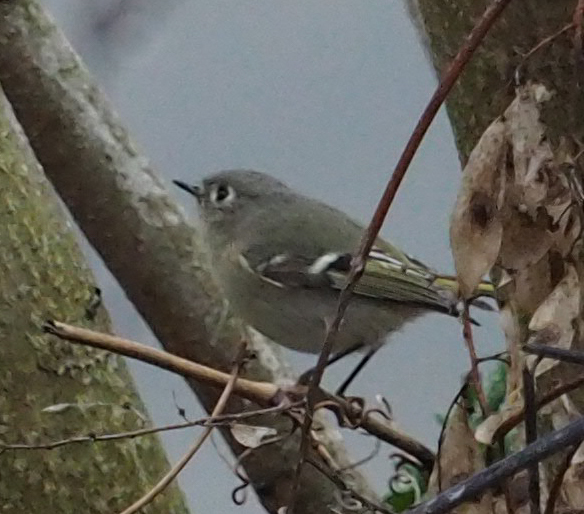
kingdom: Animalia
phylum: Chordata
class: Aves
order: Passeriformes
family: Regulidae
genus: Regulus
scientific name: Regulus calendula
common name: Ruby-crowned kinglet
